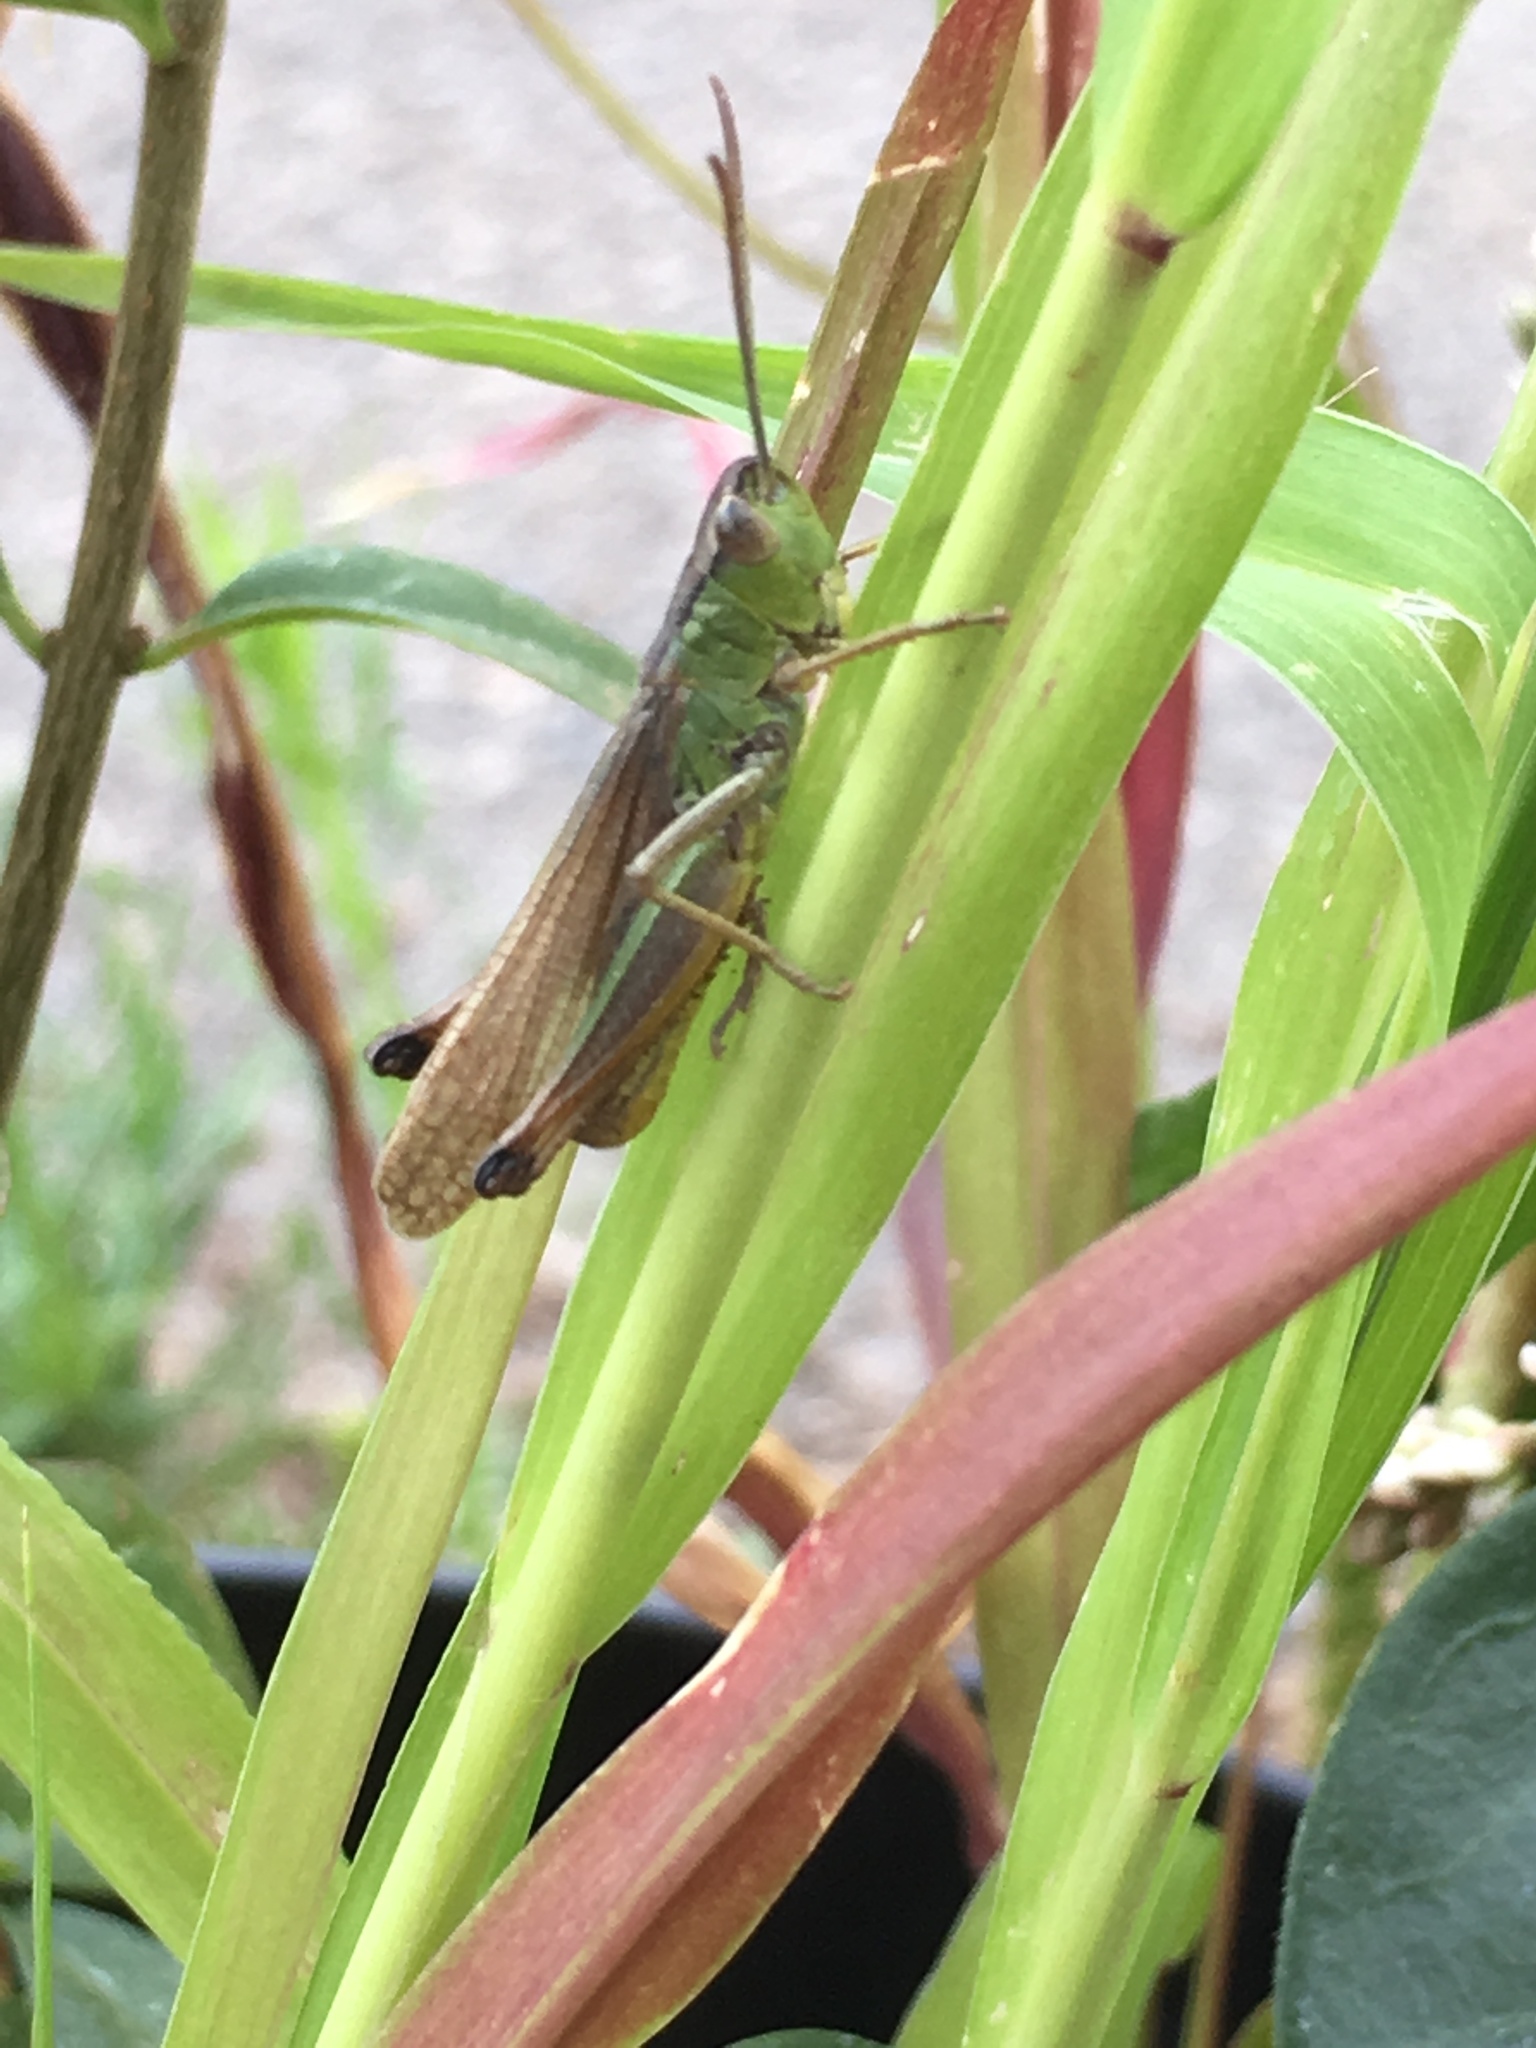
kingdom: Animalia
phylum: Arthropoda
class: Insecta
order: Orthoptera
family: Acrididae
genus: Pseudochorthippus
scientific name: Pseudochorthippus parallelus
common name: Meadow grasshopper
